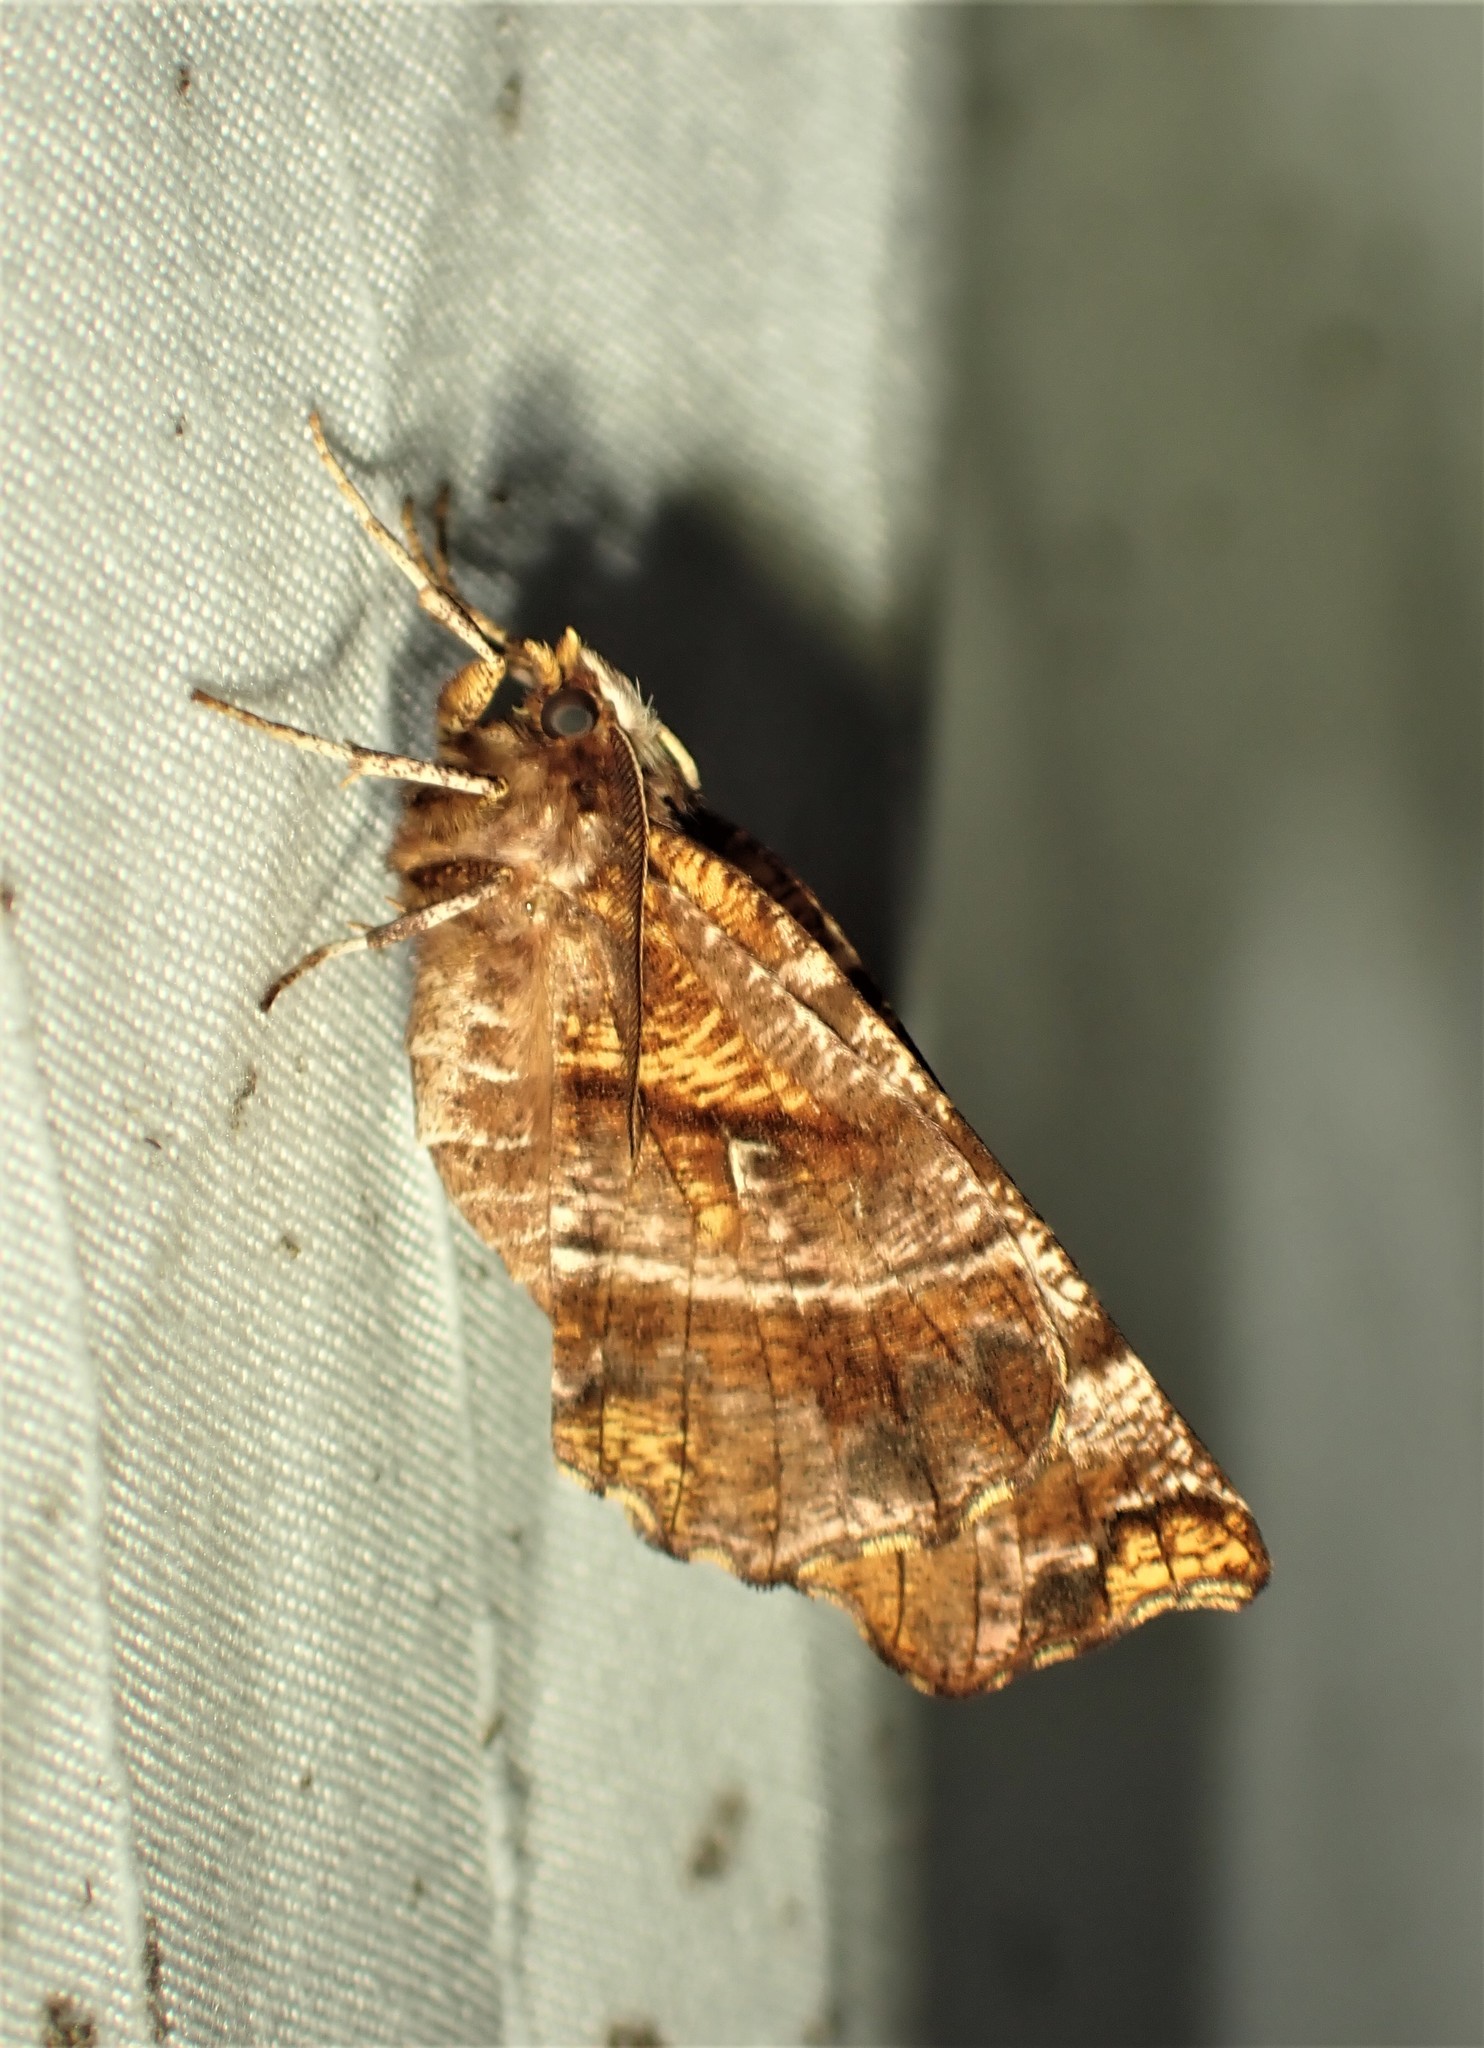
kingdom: Animalia
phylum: Arthropoda
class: Insecta
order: Lepidoptera
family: Geometridae
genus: Selenia
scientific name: Selenia alciphearia
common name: Brown-tipped thorn
